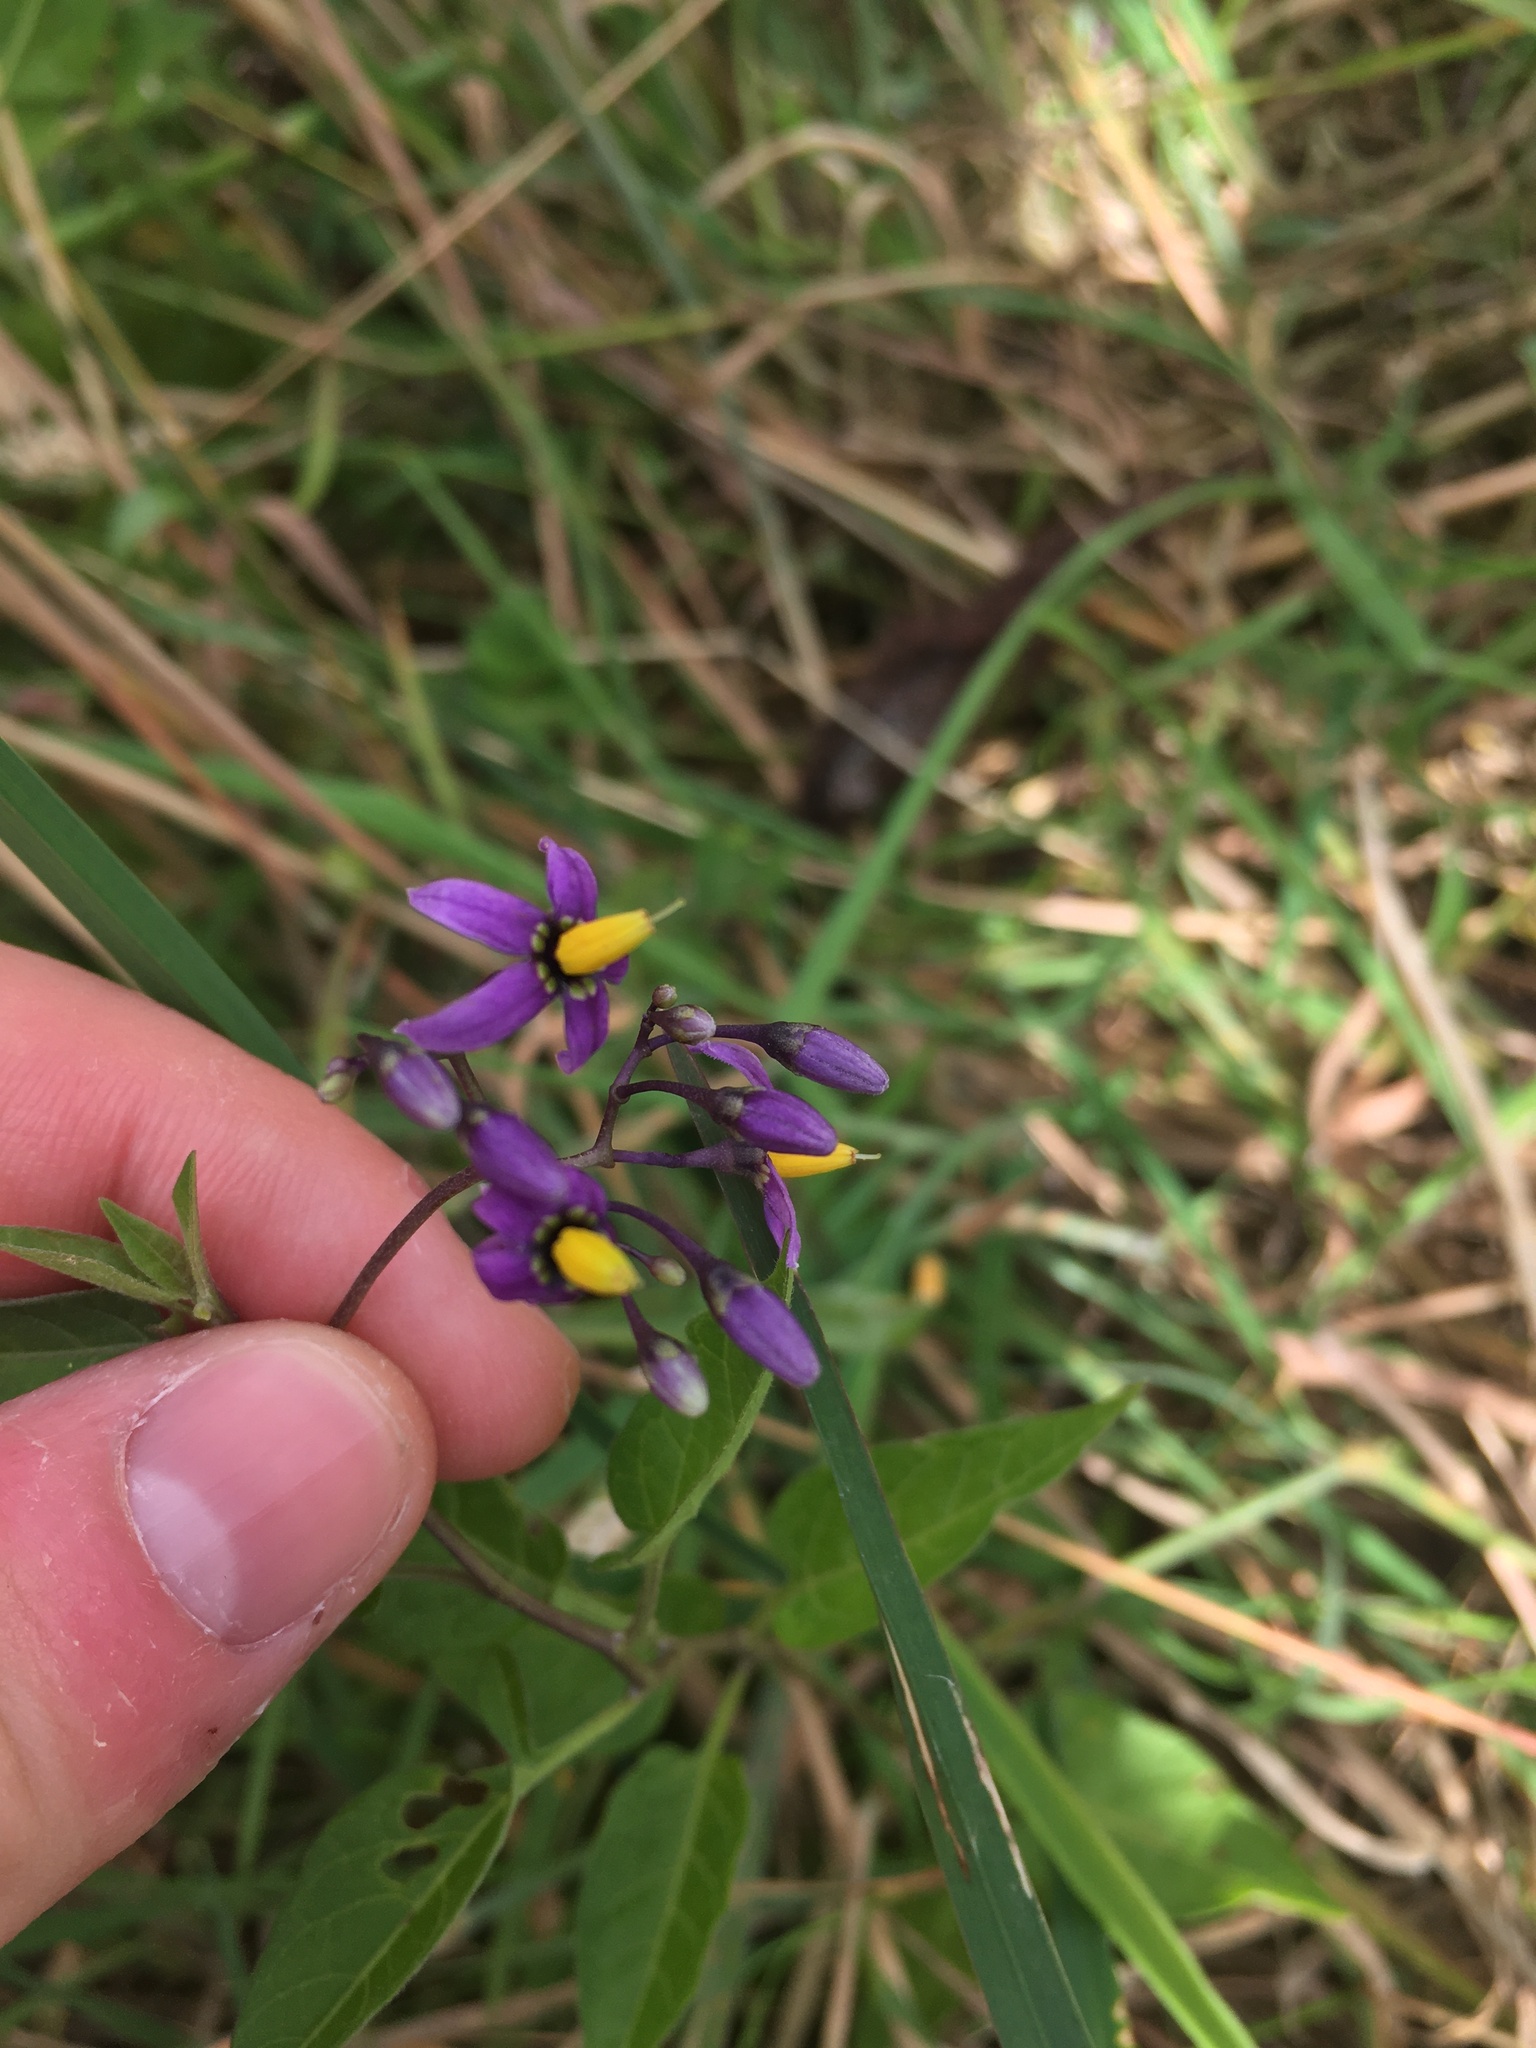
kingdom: Plantae
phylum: Tracheophyta
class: Magnoliopsida
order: Solanales
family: Solanaceae
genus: Solanum
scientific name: Solanum dulcamara
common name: Climbing nightshade
